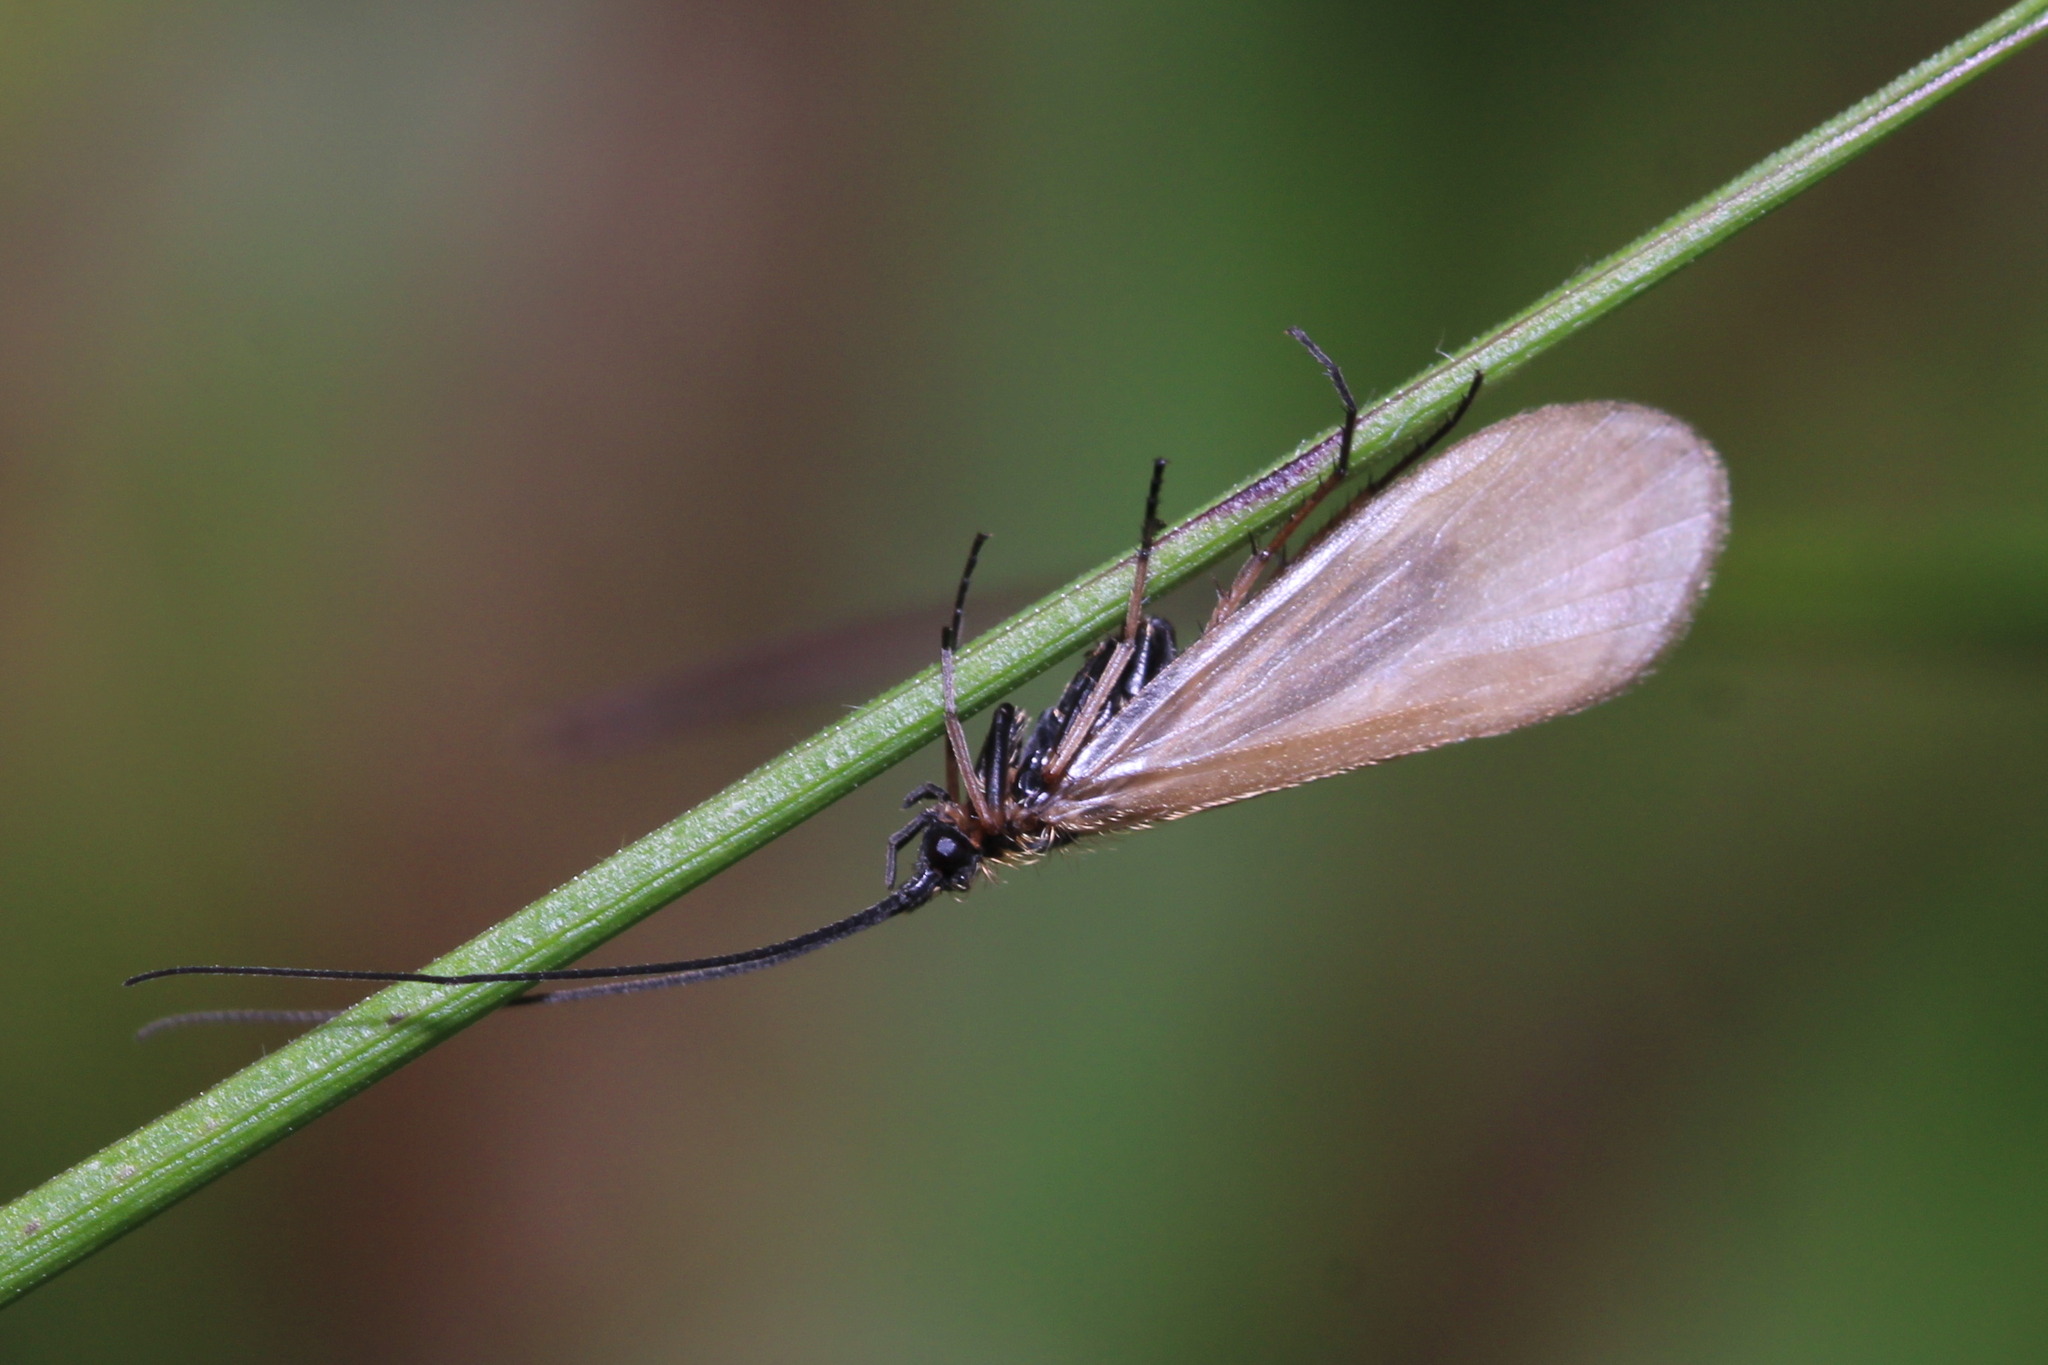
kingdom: Animalia
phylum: Arthropoda
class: Insecta
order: Trichoptera
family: Limnephilidae
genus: Parachiona
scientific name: Parachiona picicornis
